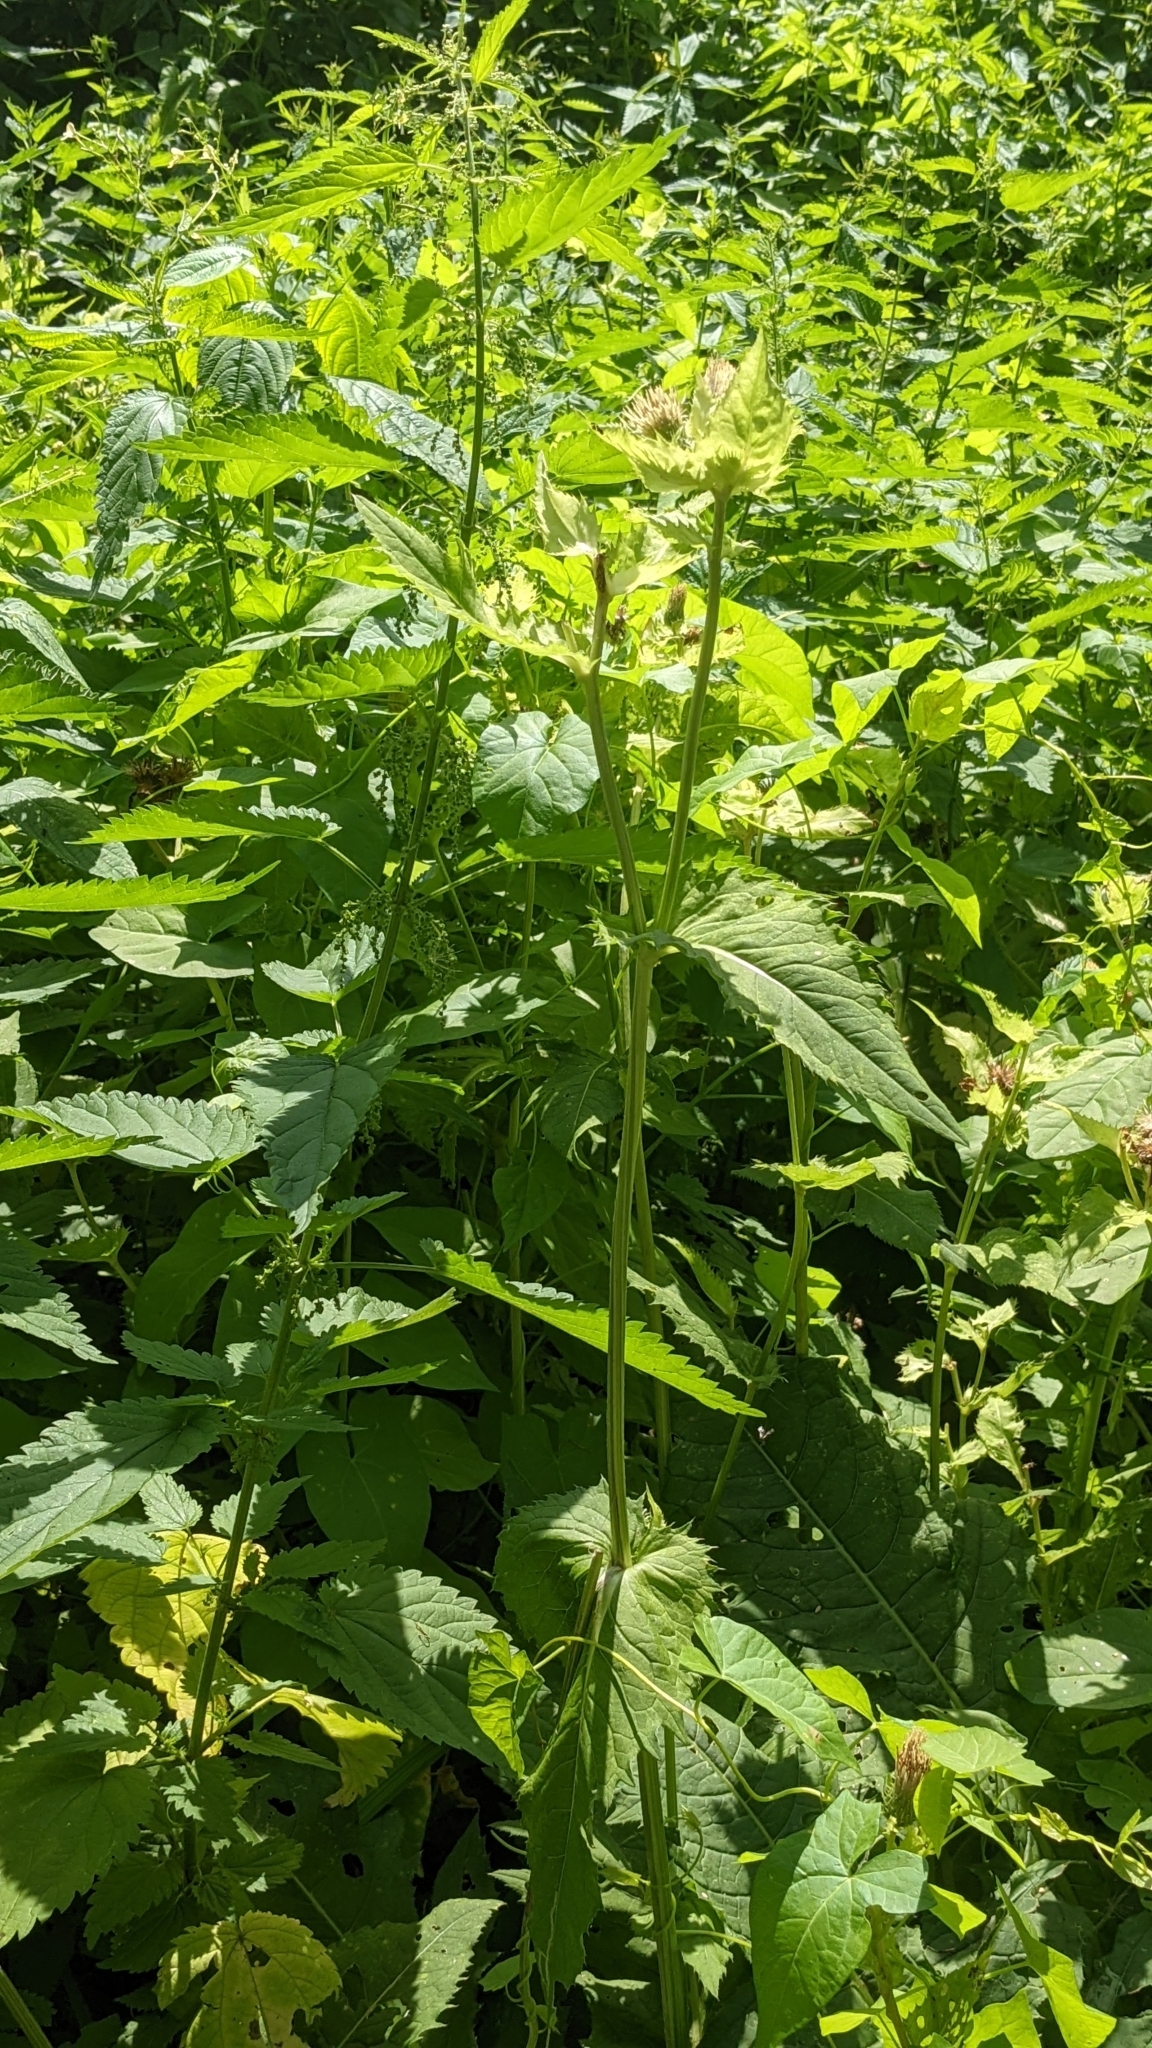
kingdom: Plantae
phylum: Tracheophyta
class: Magnoliopsida
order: Asterales
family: Asteraceae
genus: Cirsium
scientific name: Cirsium oleraceum
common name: Cabbage thistle
